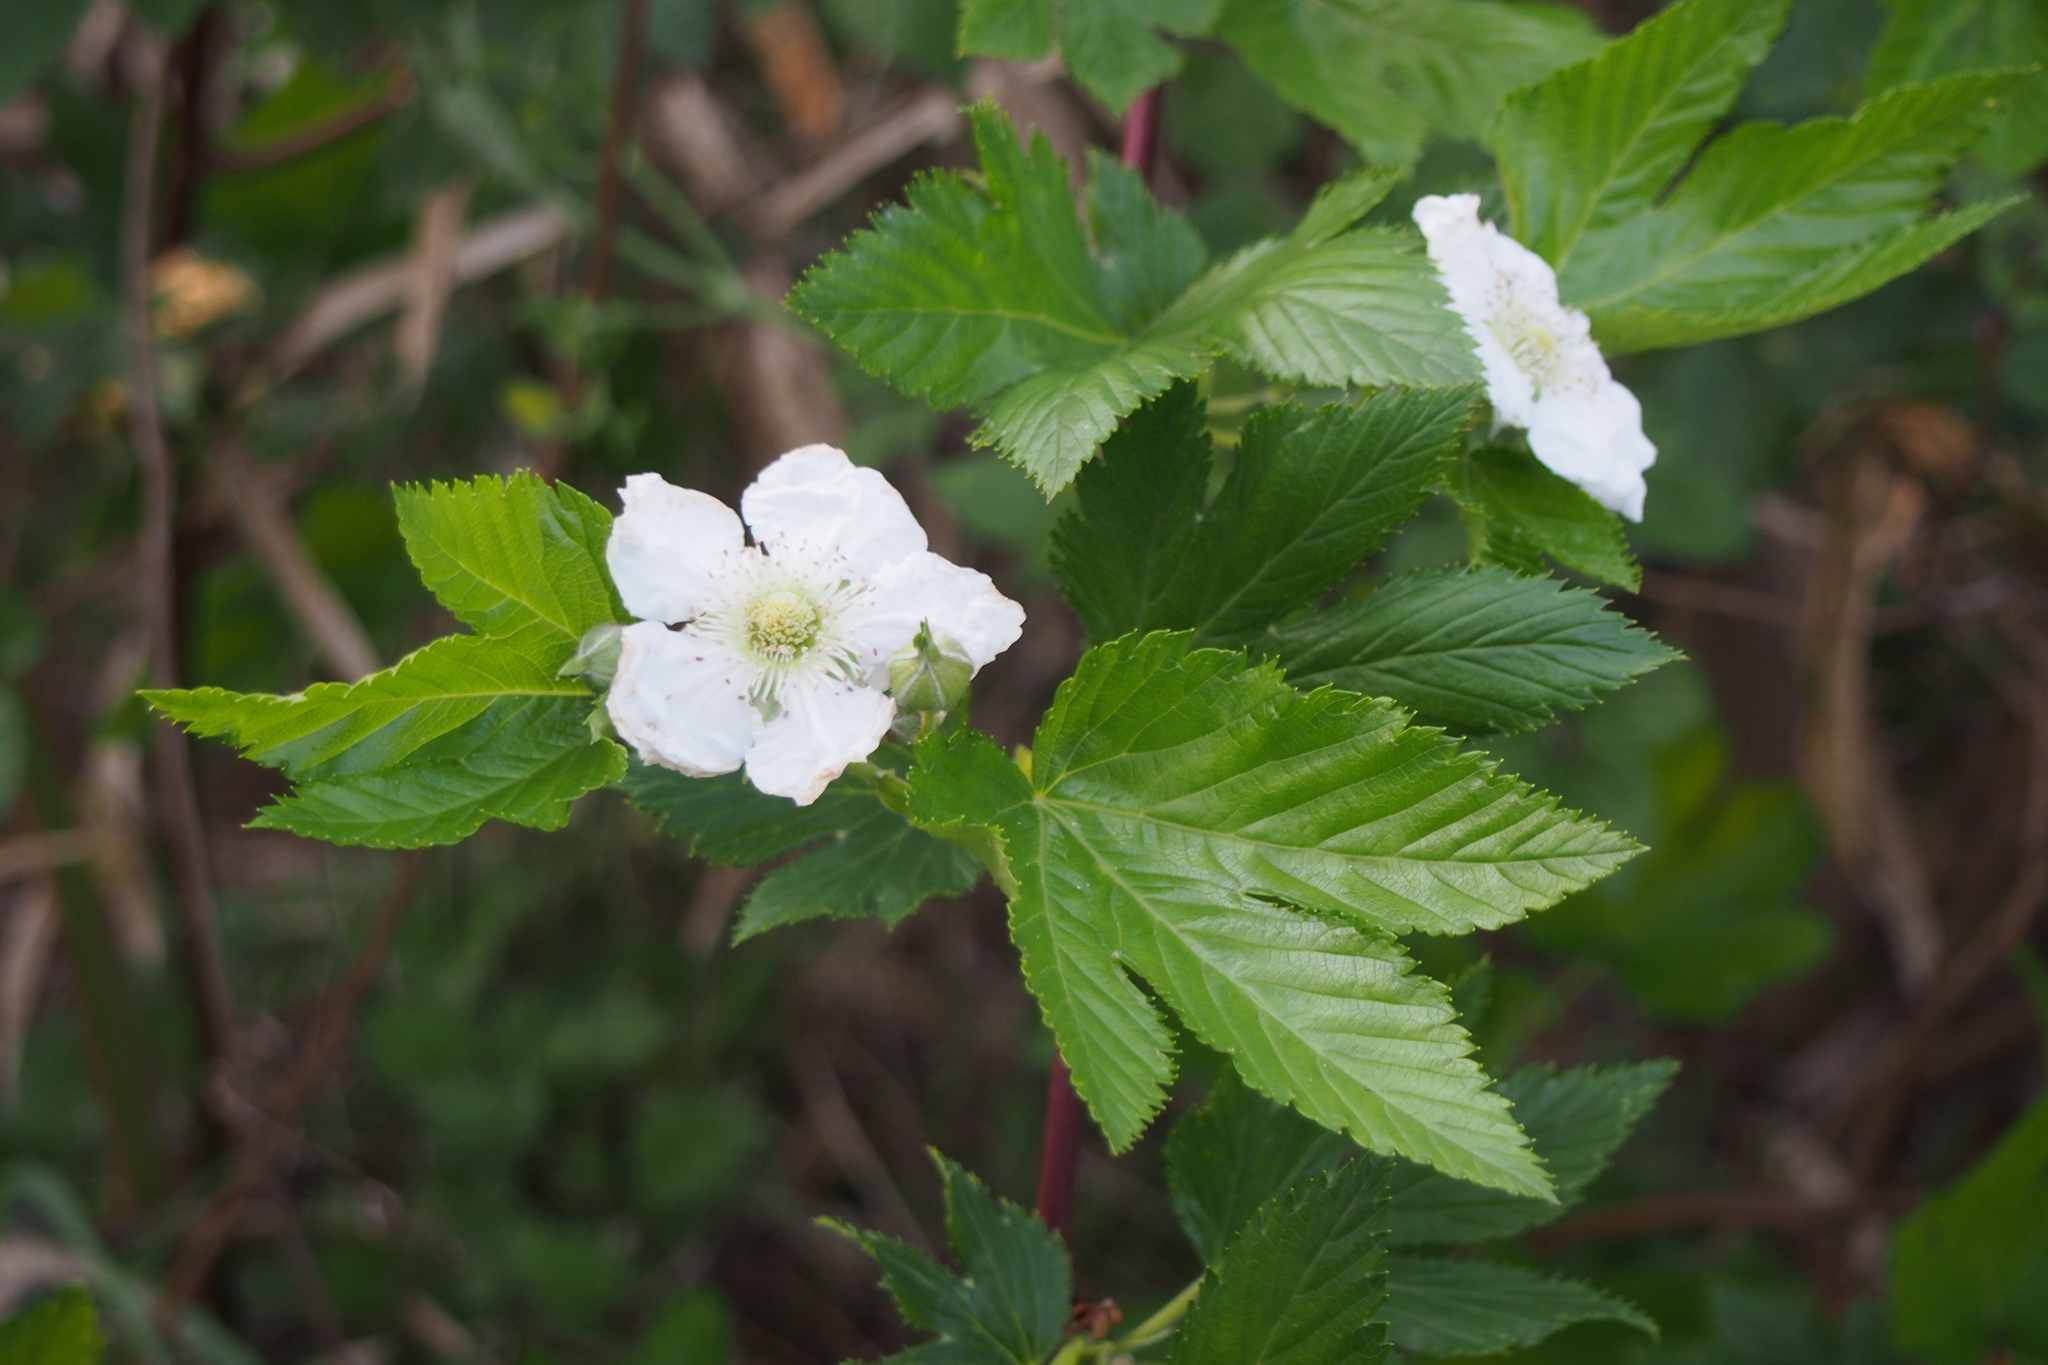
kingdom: Plantae
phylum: Tracheophyta
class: Magnoliopsida
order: Rosales
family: Rosaceae
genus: Rubus
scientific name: Rubus trifidus
